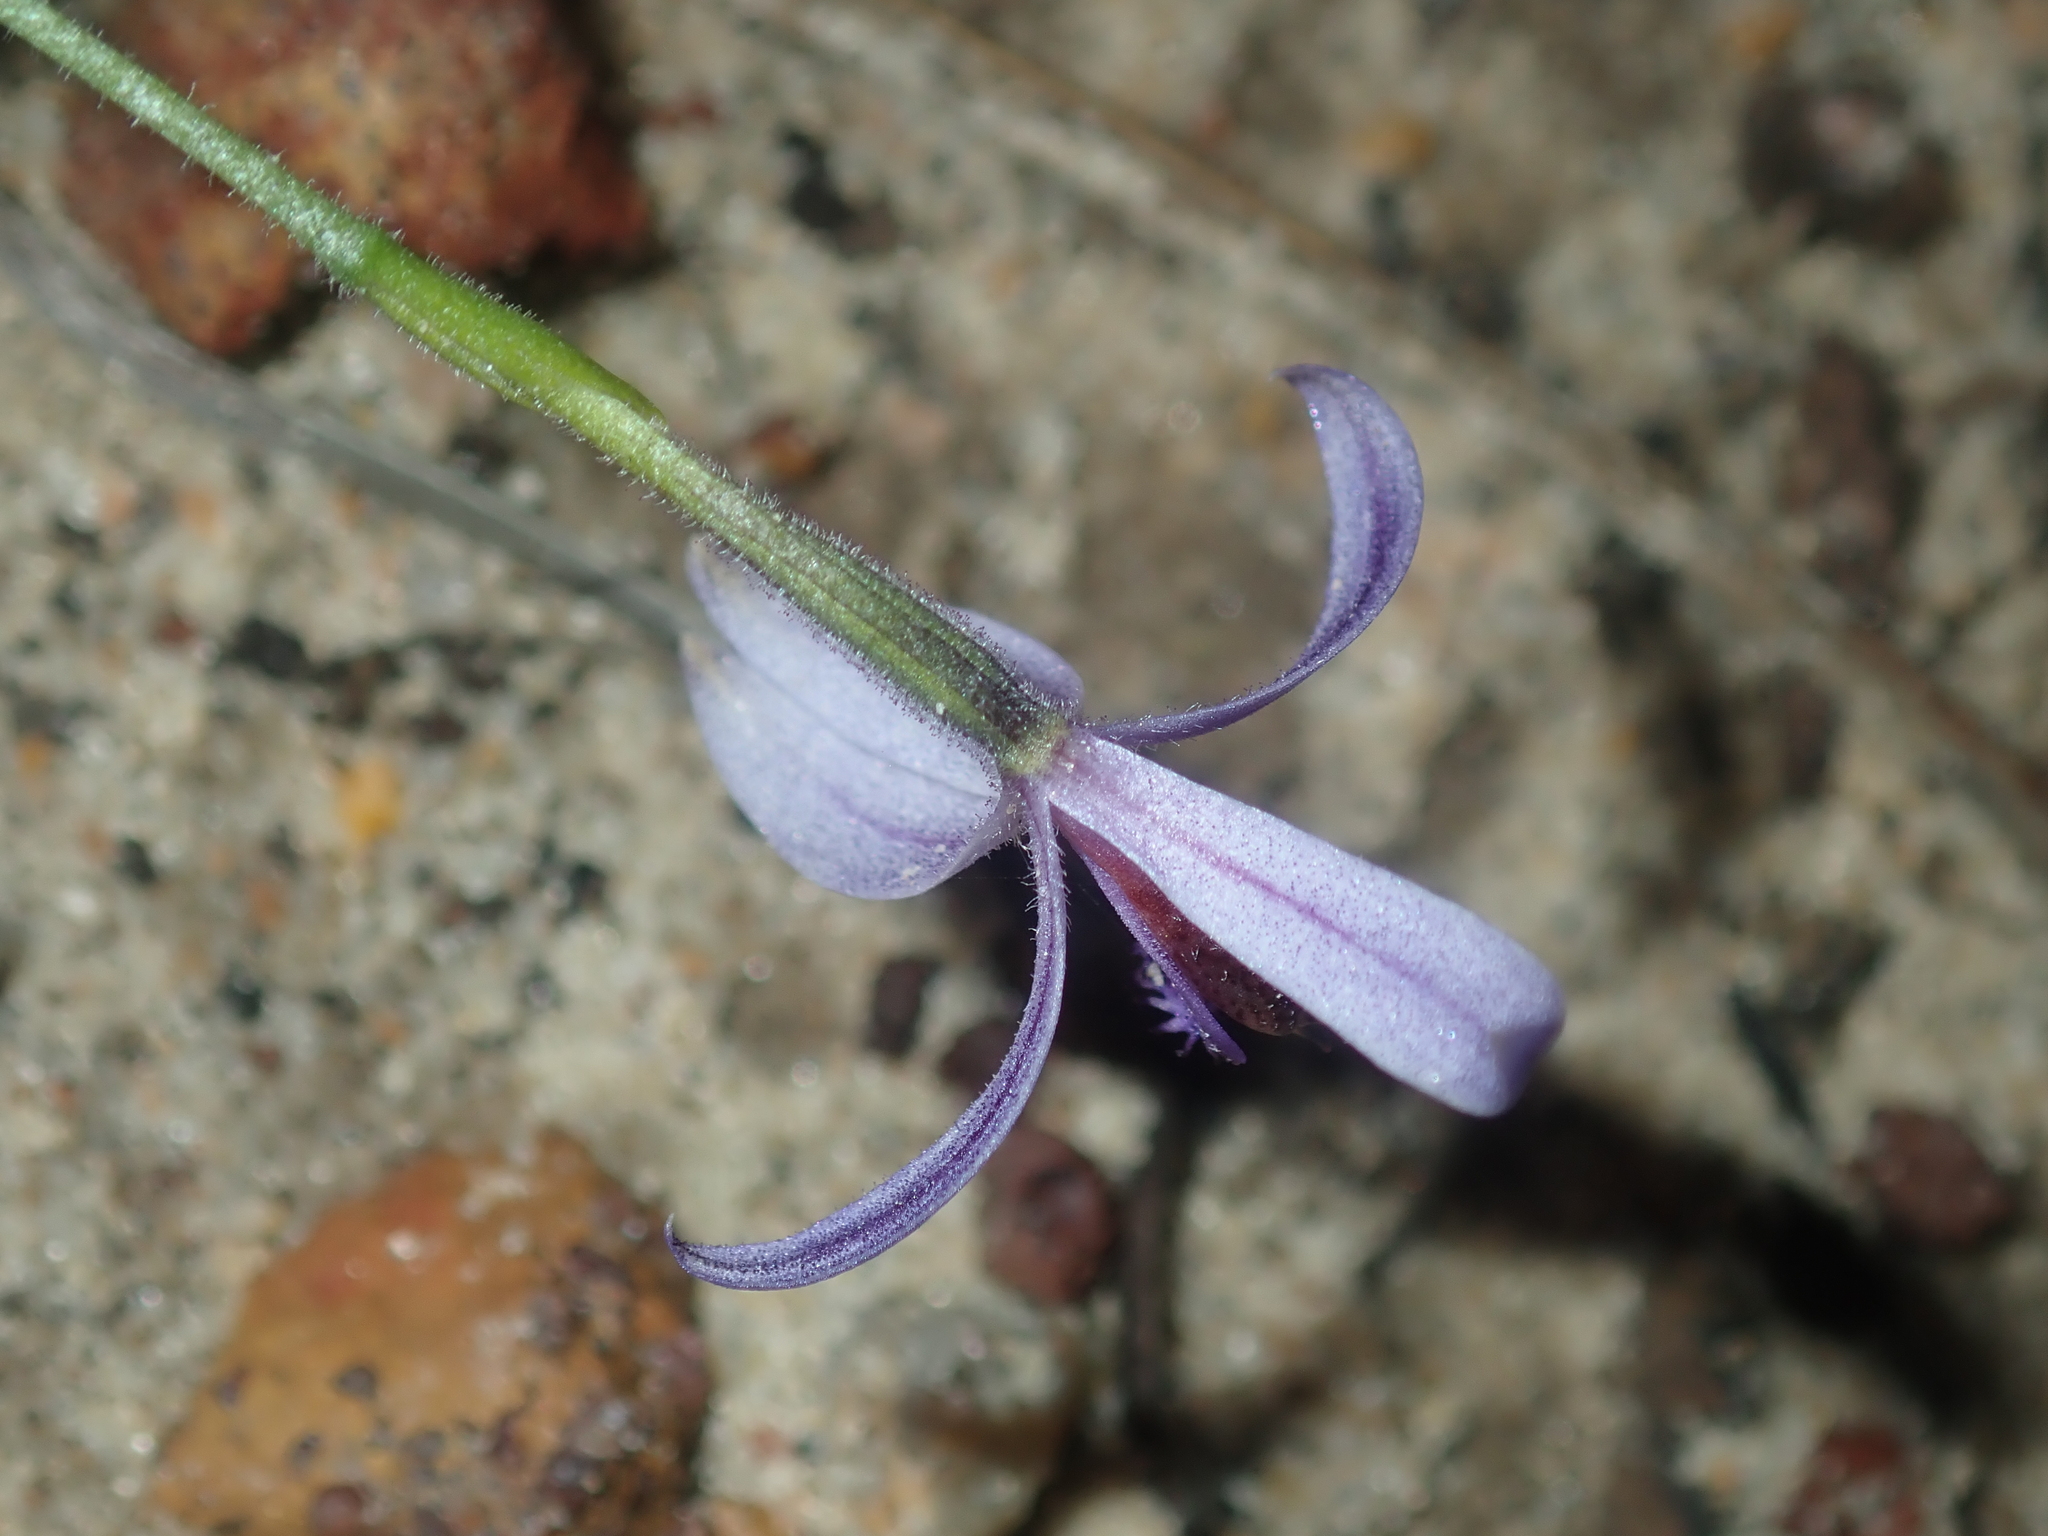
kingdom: Plantae
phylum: Tracheophyta
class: Liliopsida
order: Asparagales
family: Orchidaceae
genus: Pheladenia
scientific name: Pheladenia deformis
